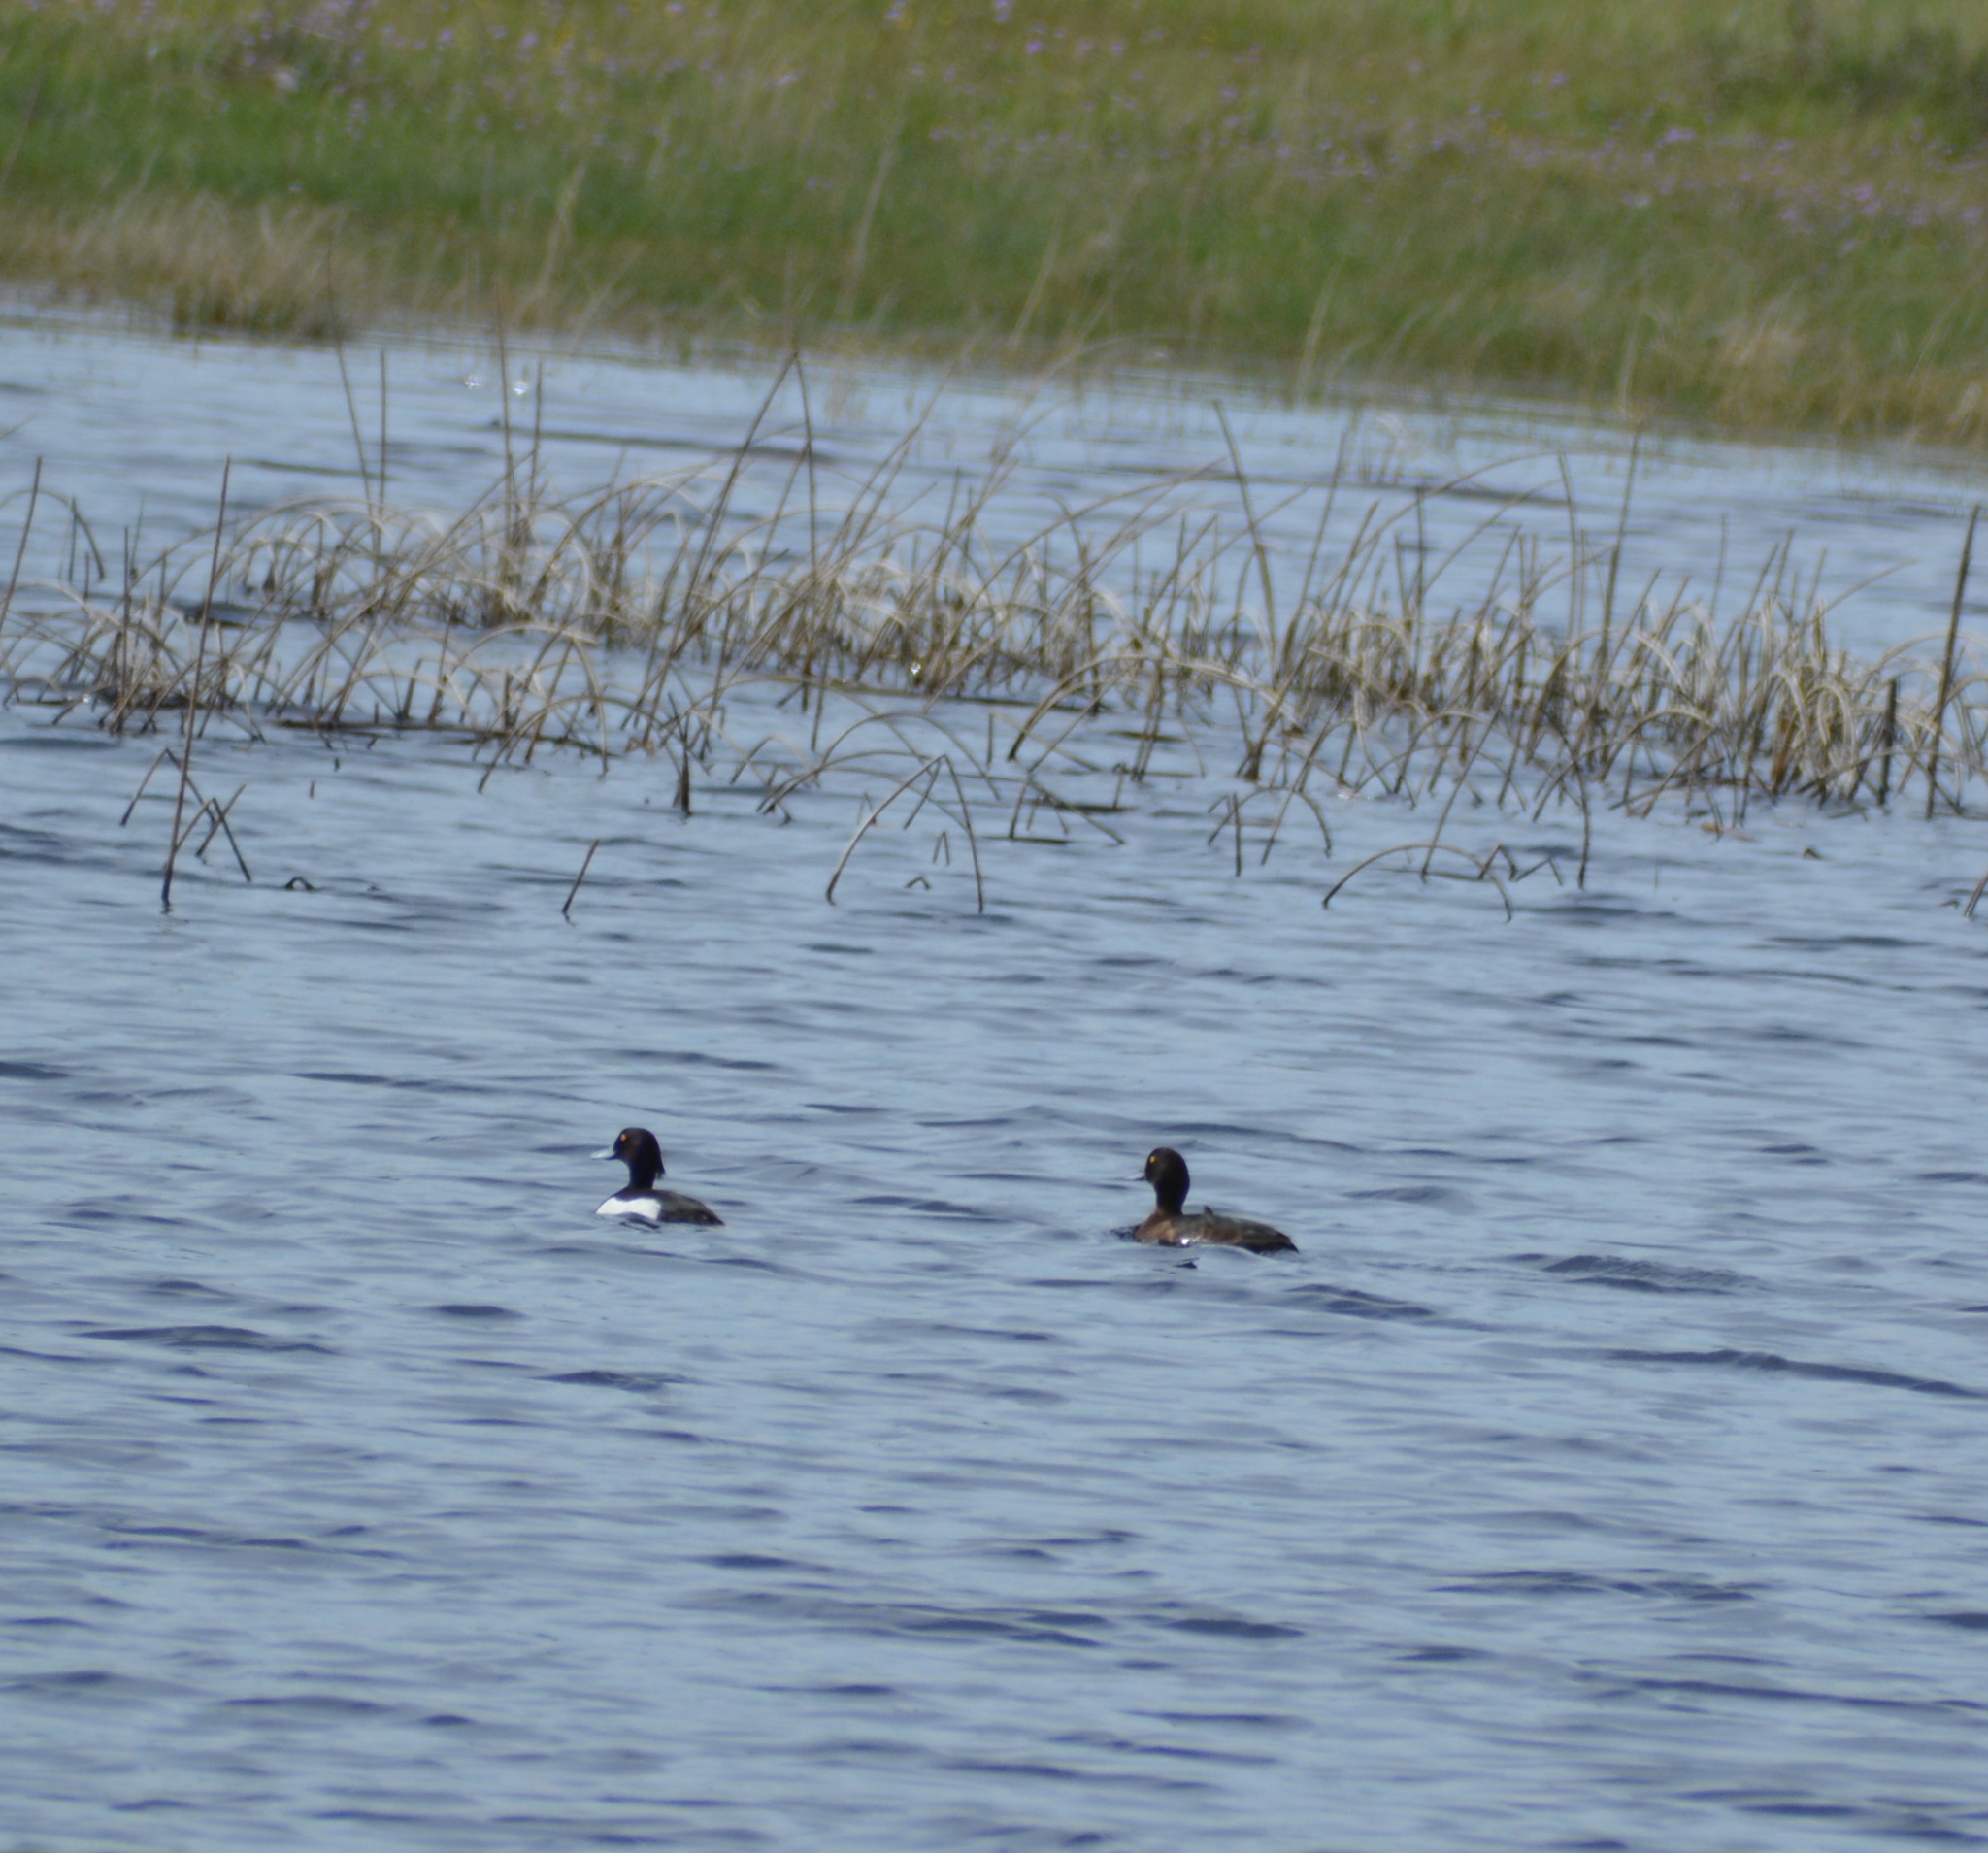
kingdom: Animalia
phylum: Chordata
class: Aves
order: Anseriformes
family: Anatidae
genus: Aythya
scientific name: Aythya fuligula
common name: Tufted duck
